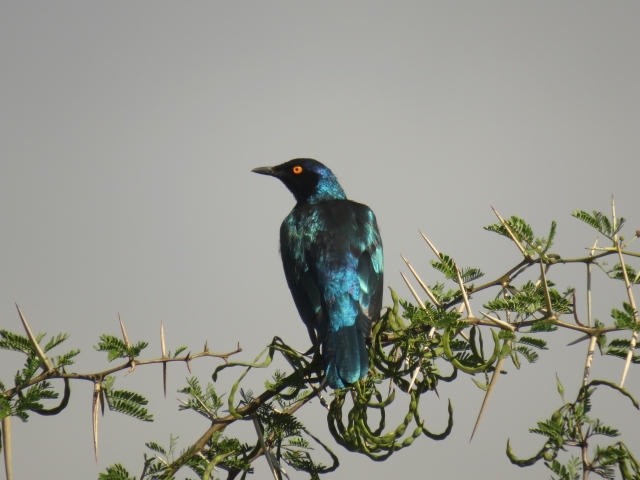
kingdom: Animalia
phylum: Chordata
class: Aves
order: Passeriformes
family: Sturnidae
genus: Lamprotornis
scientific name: Lamprotornis nitens
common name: Cape starling
